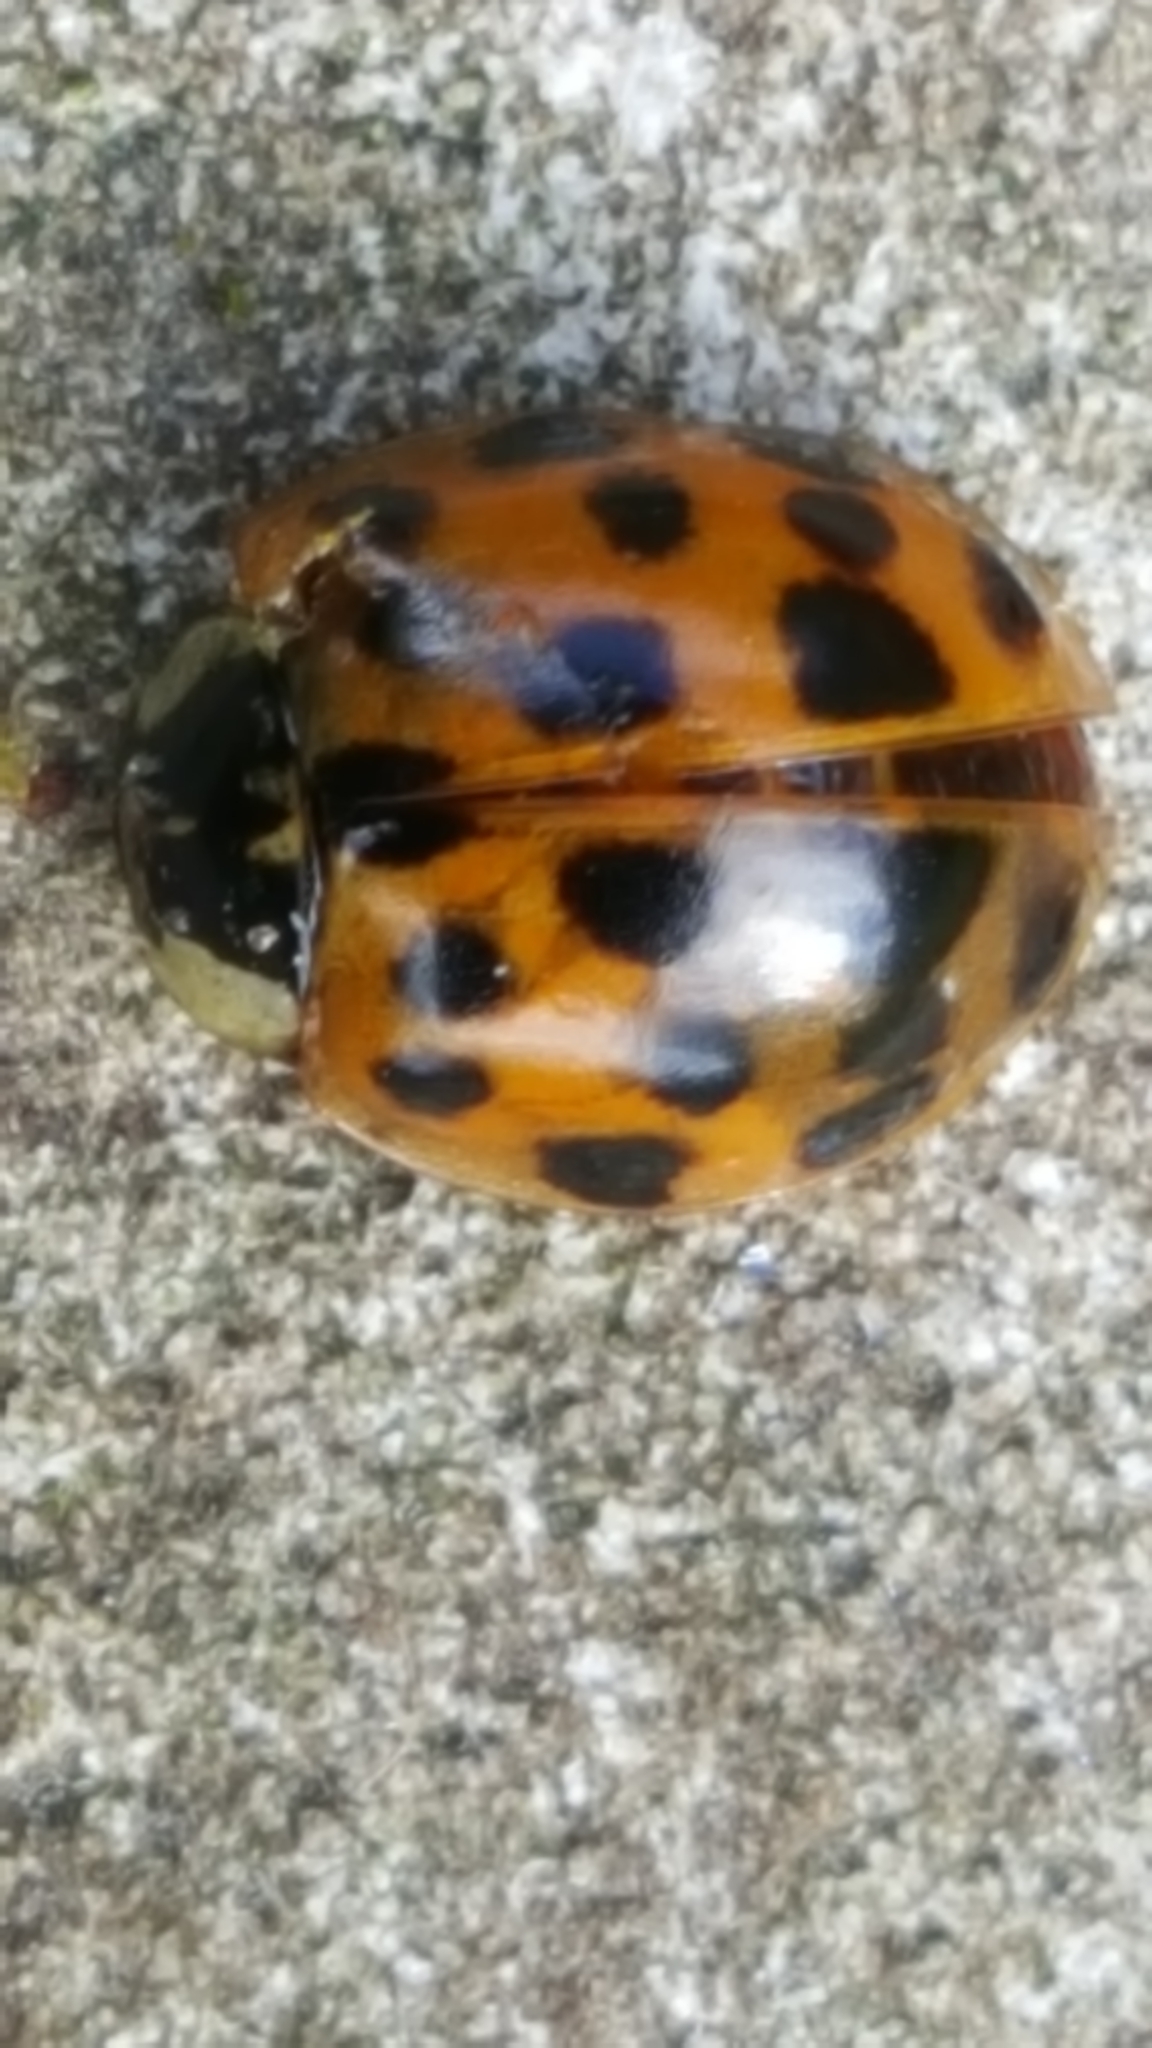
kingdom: Animalia
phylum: Arthropoda
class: Insecta
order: Coleoptera
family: Coccinellidae
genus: Harmonia
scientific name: Harmonia axyridis
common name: Harlequin ladybird
